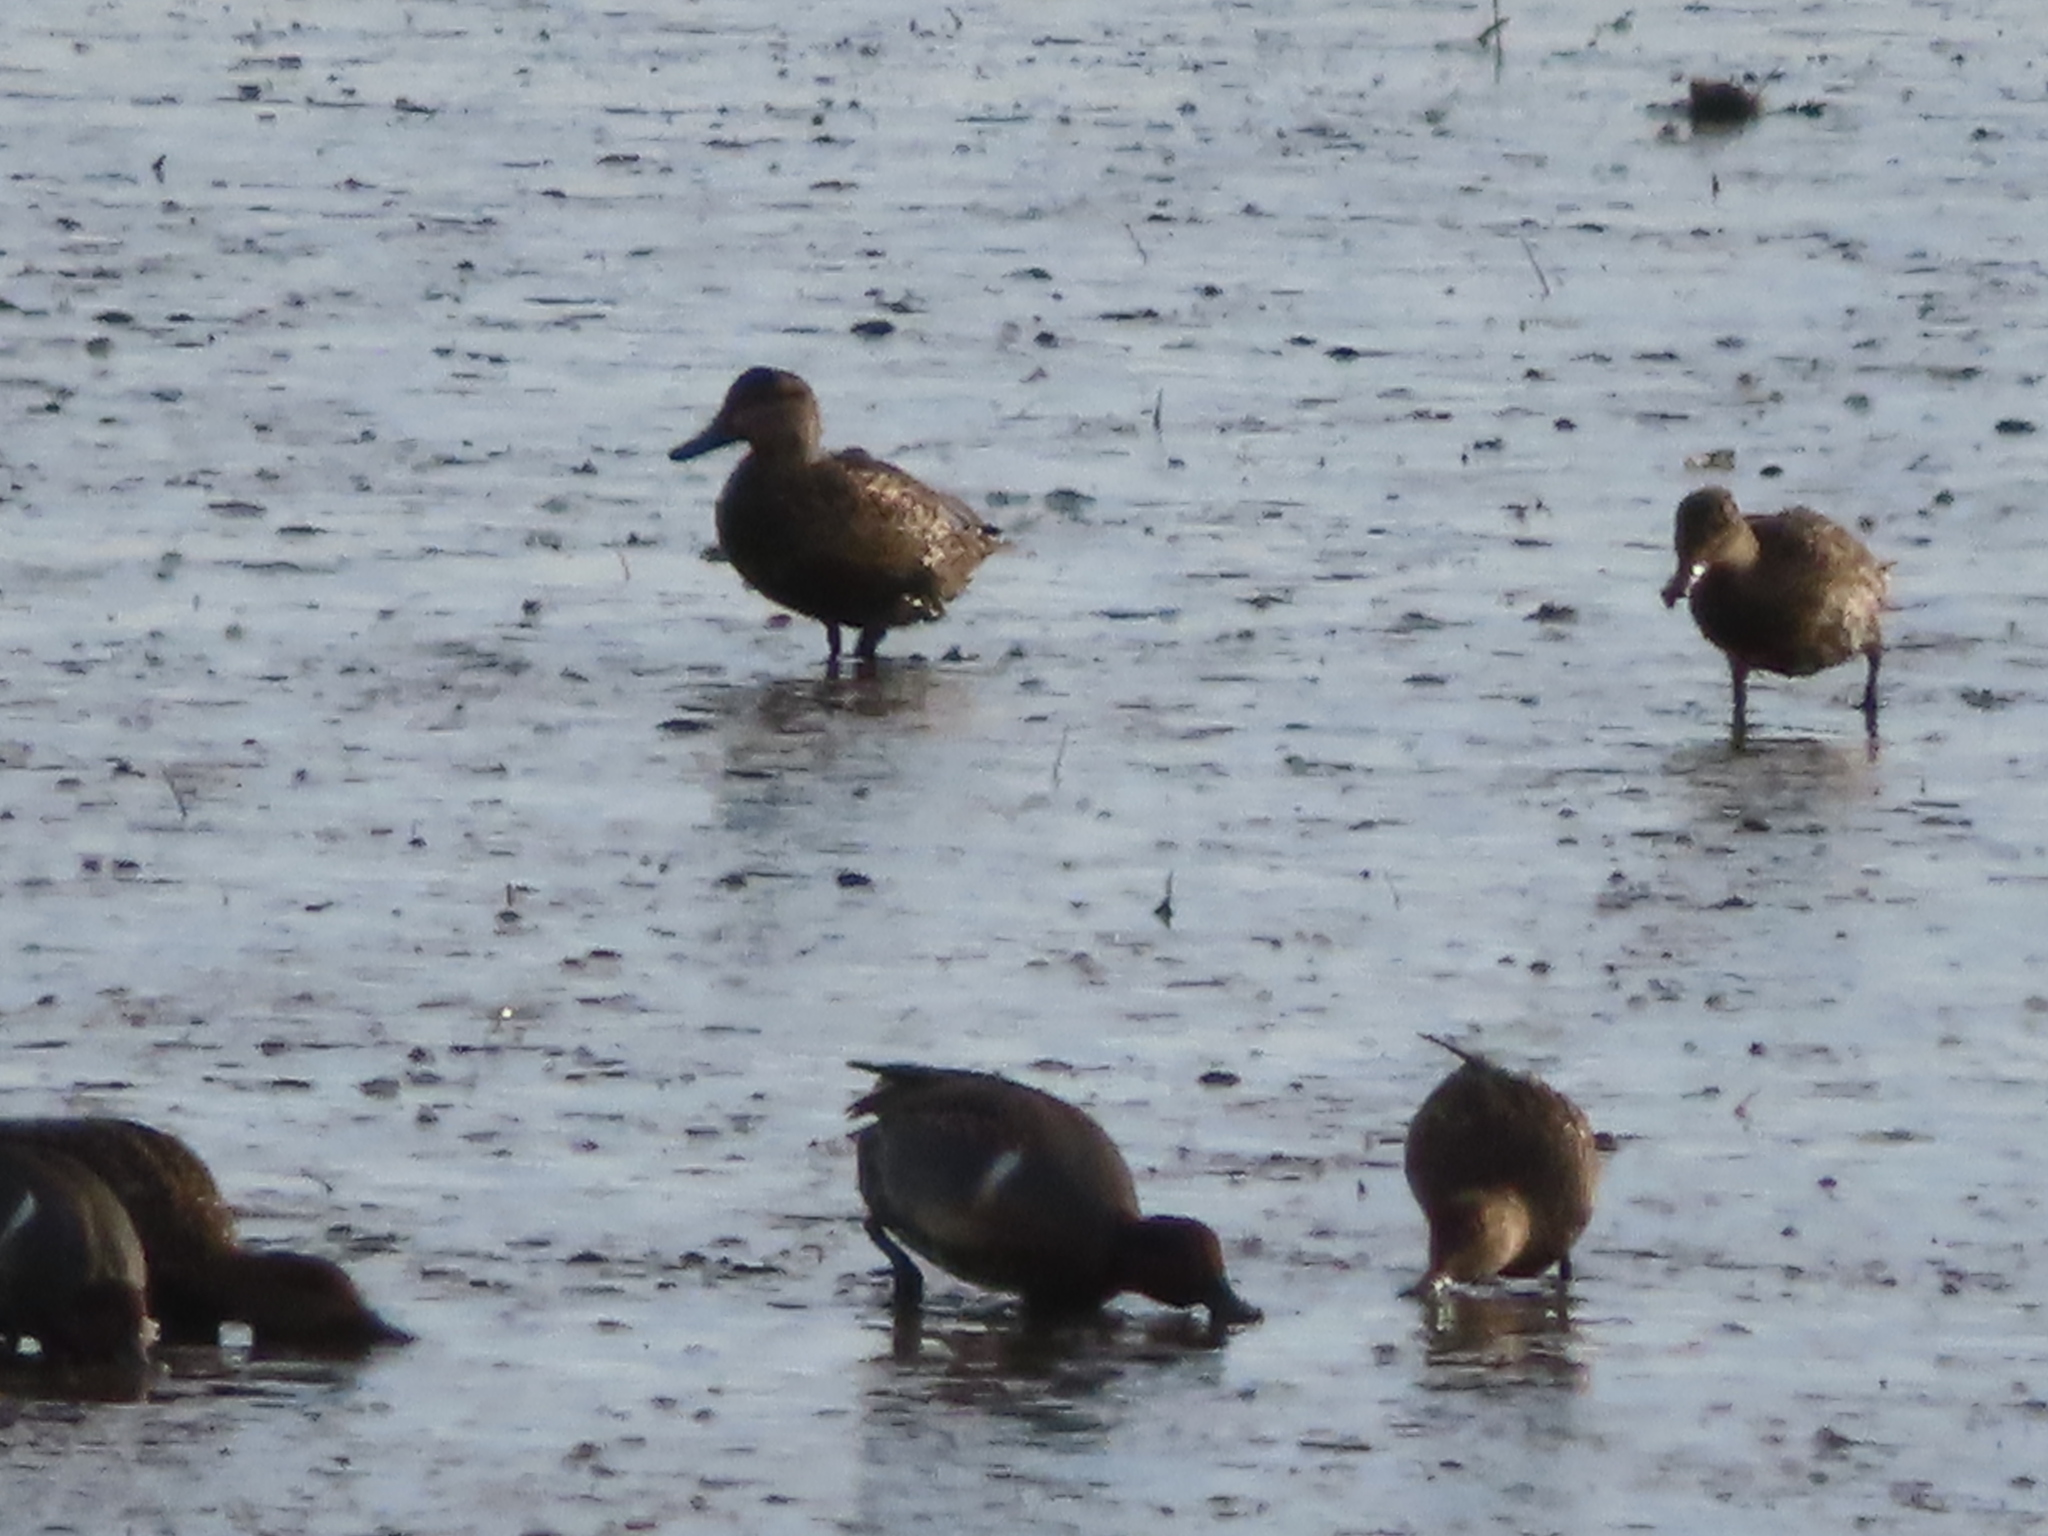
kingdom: Animalia
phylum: Chordata
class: Aves
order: Anseriformes
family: Anatidae
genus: Anas
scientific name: Anas crecca
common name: Eurasian teal
